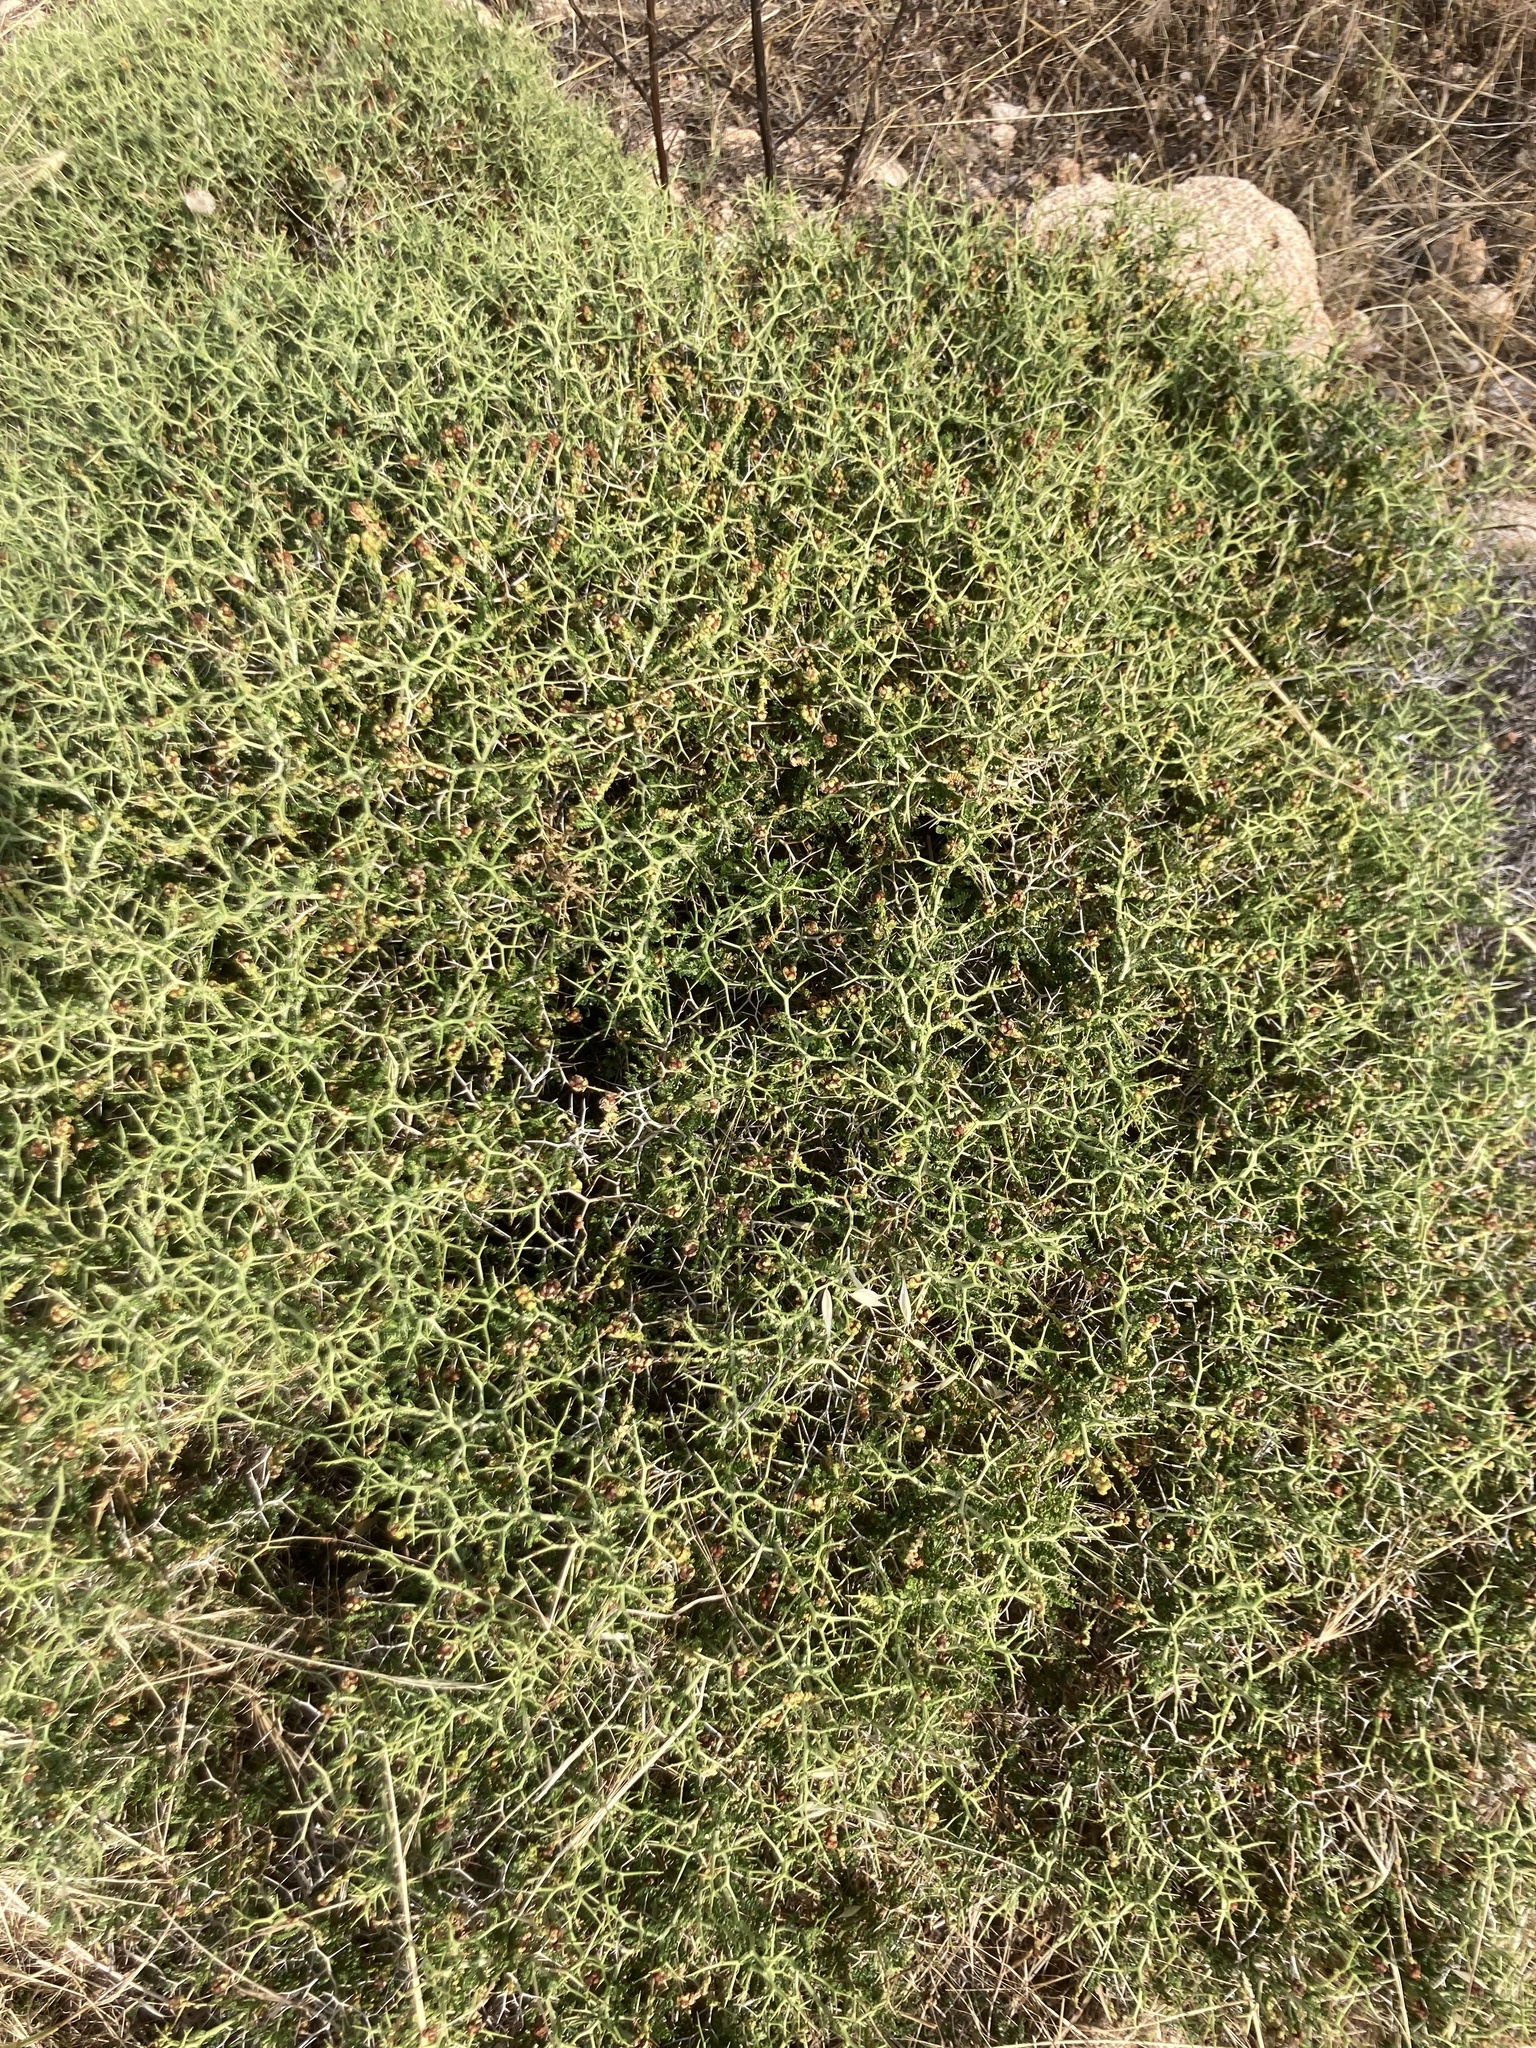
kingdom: Plantae
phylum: Tracheophyta
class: Magnoliopsida
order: Rosales
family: Rosaceae
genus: Sarcopoterium
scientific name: Sarcopoterium spinosum
